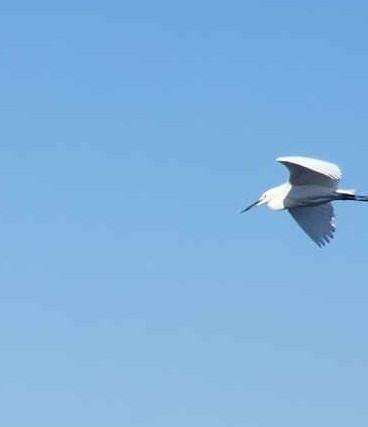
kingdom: Animalia
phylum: Chordata
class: Aves
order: Pelecaniformes
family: Ardeidae
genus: Egretta
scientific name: Egretta garzetta
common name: Little egret
